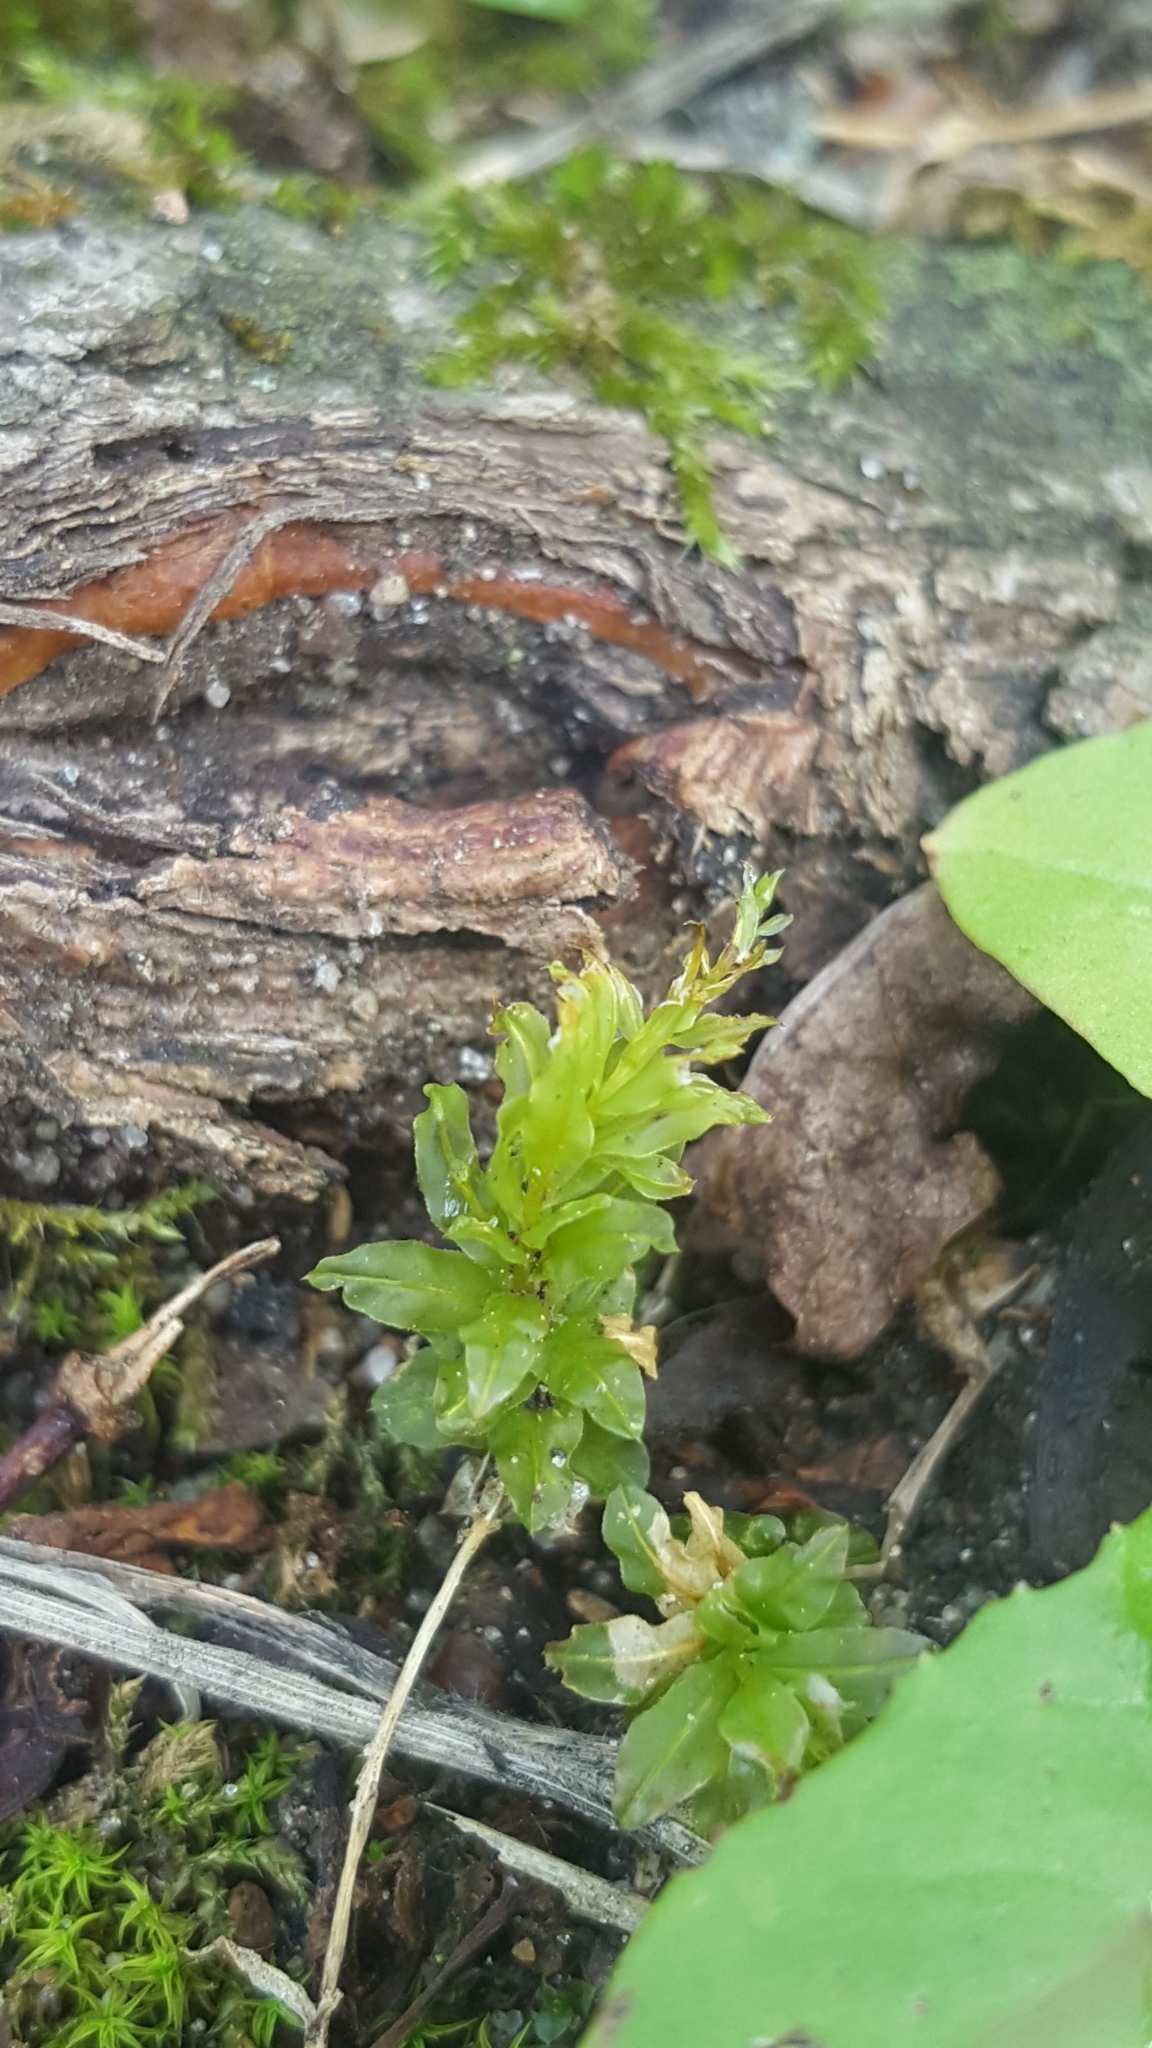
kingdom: Plantae
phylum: Bryophyta
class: Bryopsida
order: Bryales
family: Mniaceae
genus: Plagiomnium
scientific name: Plagiomnium undulatum
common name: Hart's-tongue thyme-moss
